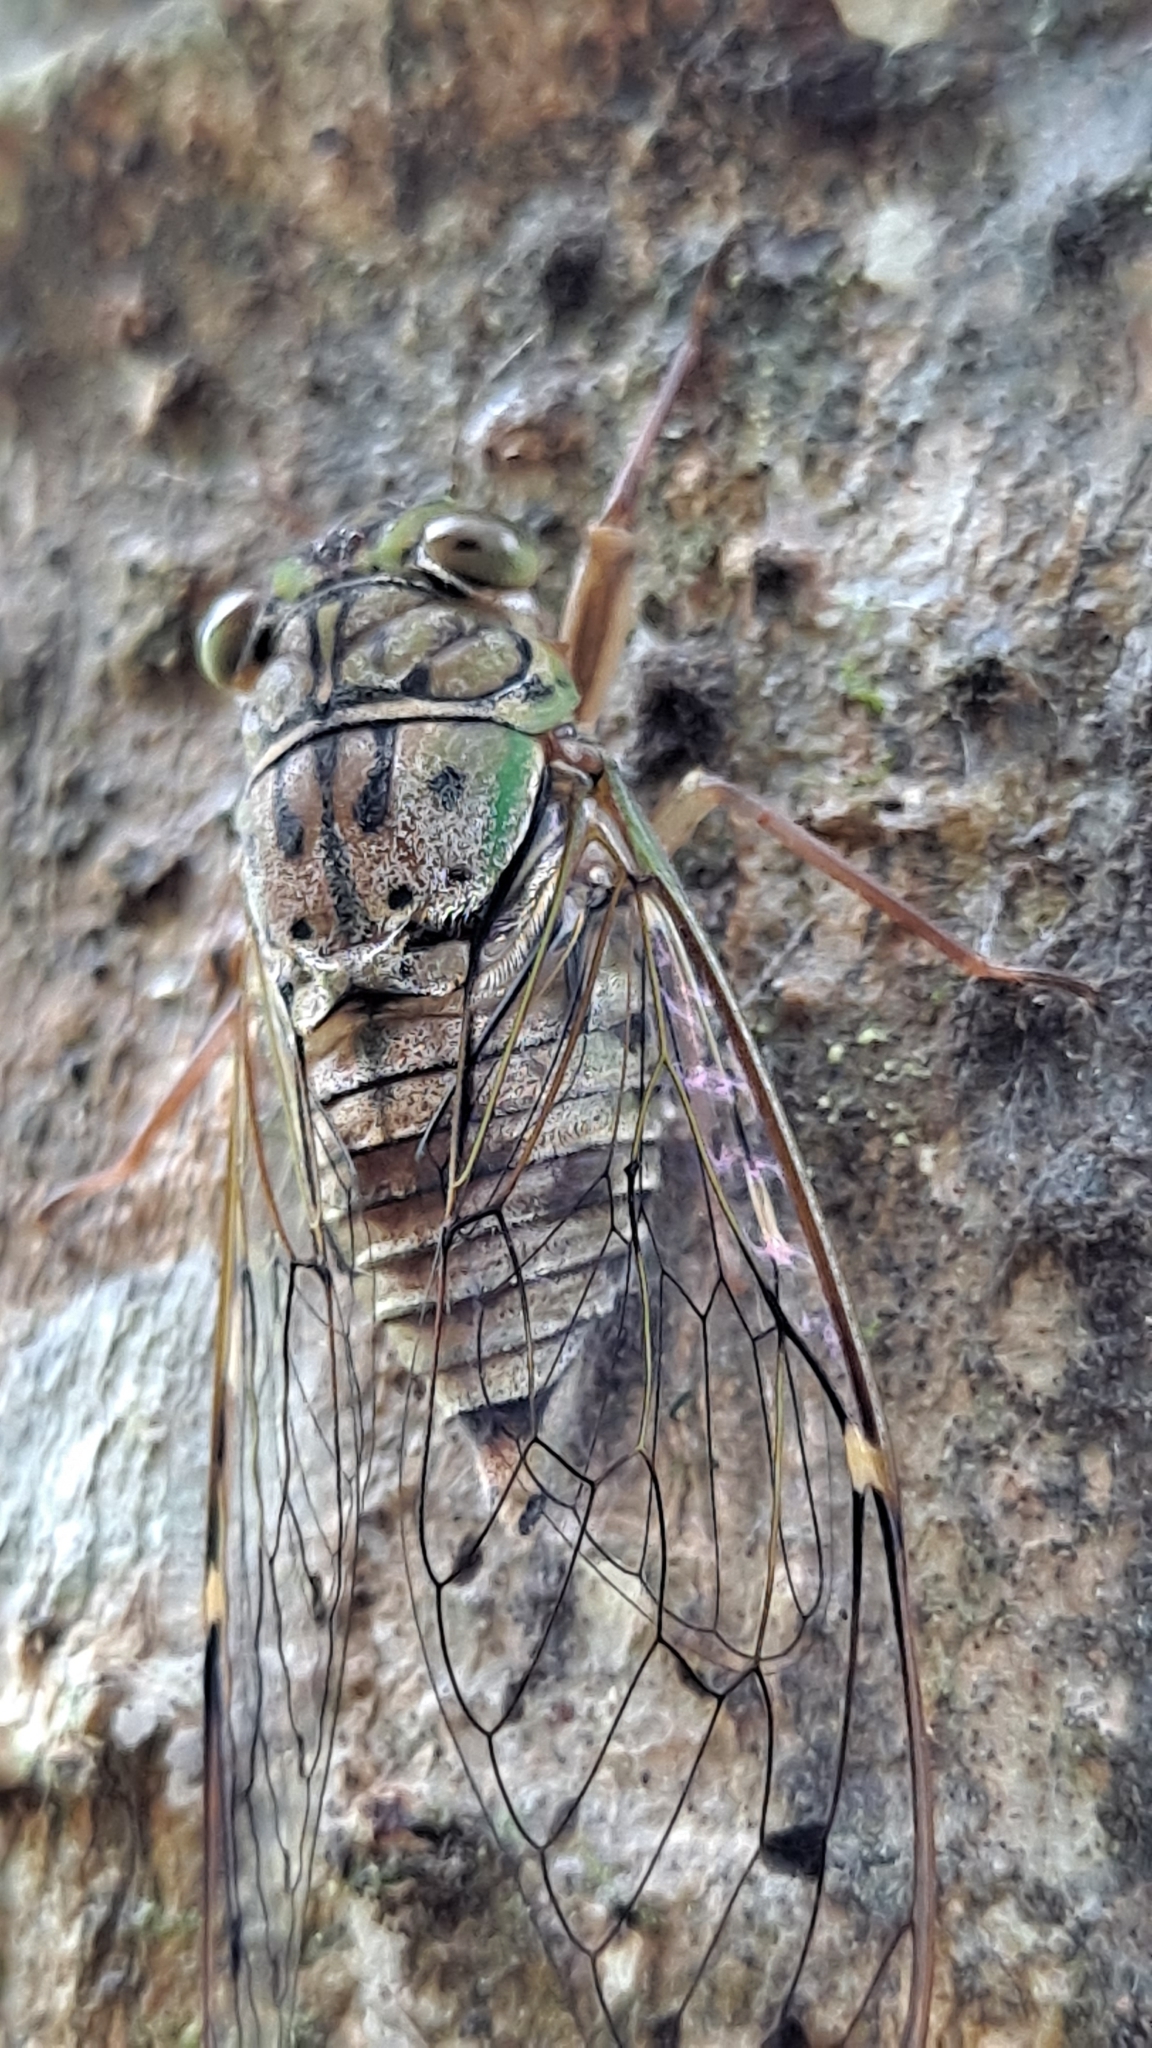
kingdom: Animalia
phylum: Arthropoda
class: Insecta
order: Hemiptera
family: Cicadidae
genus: Formosemia
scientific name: Formosemia apicalis
